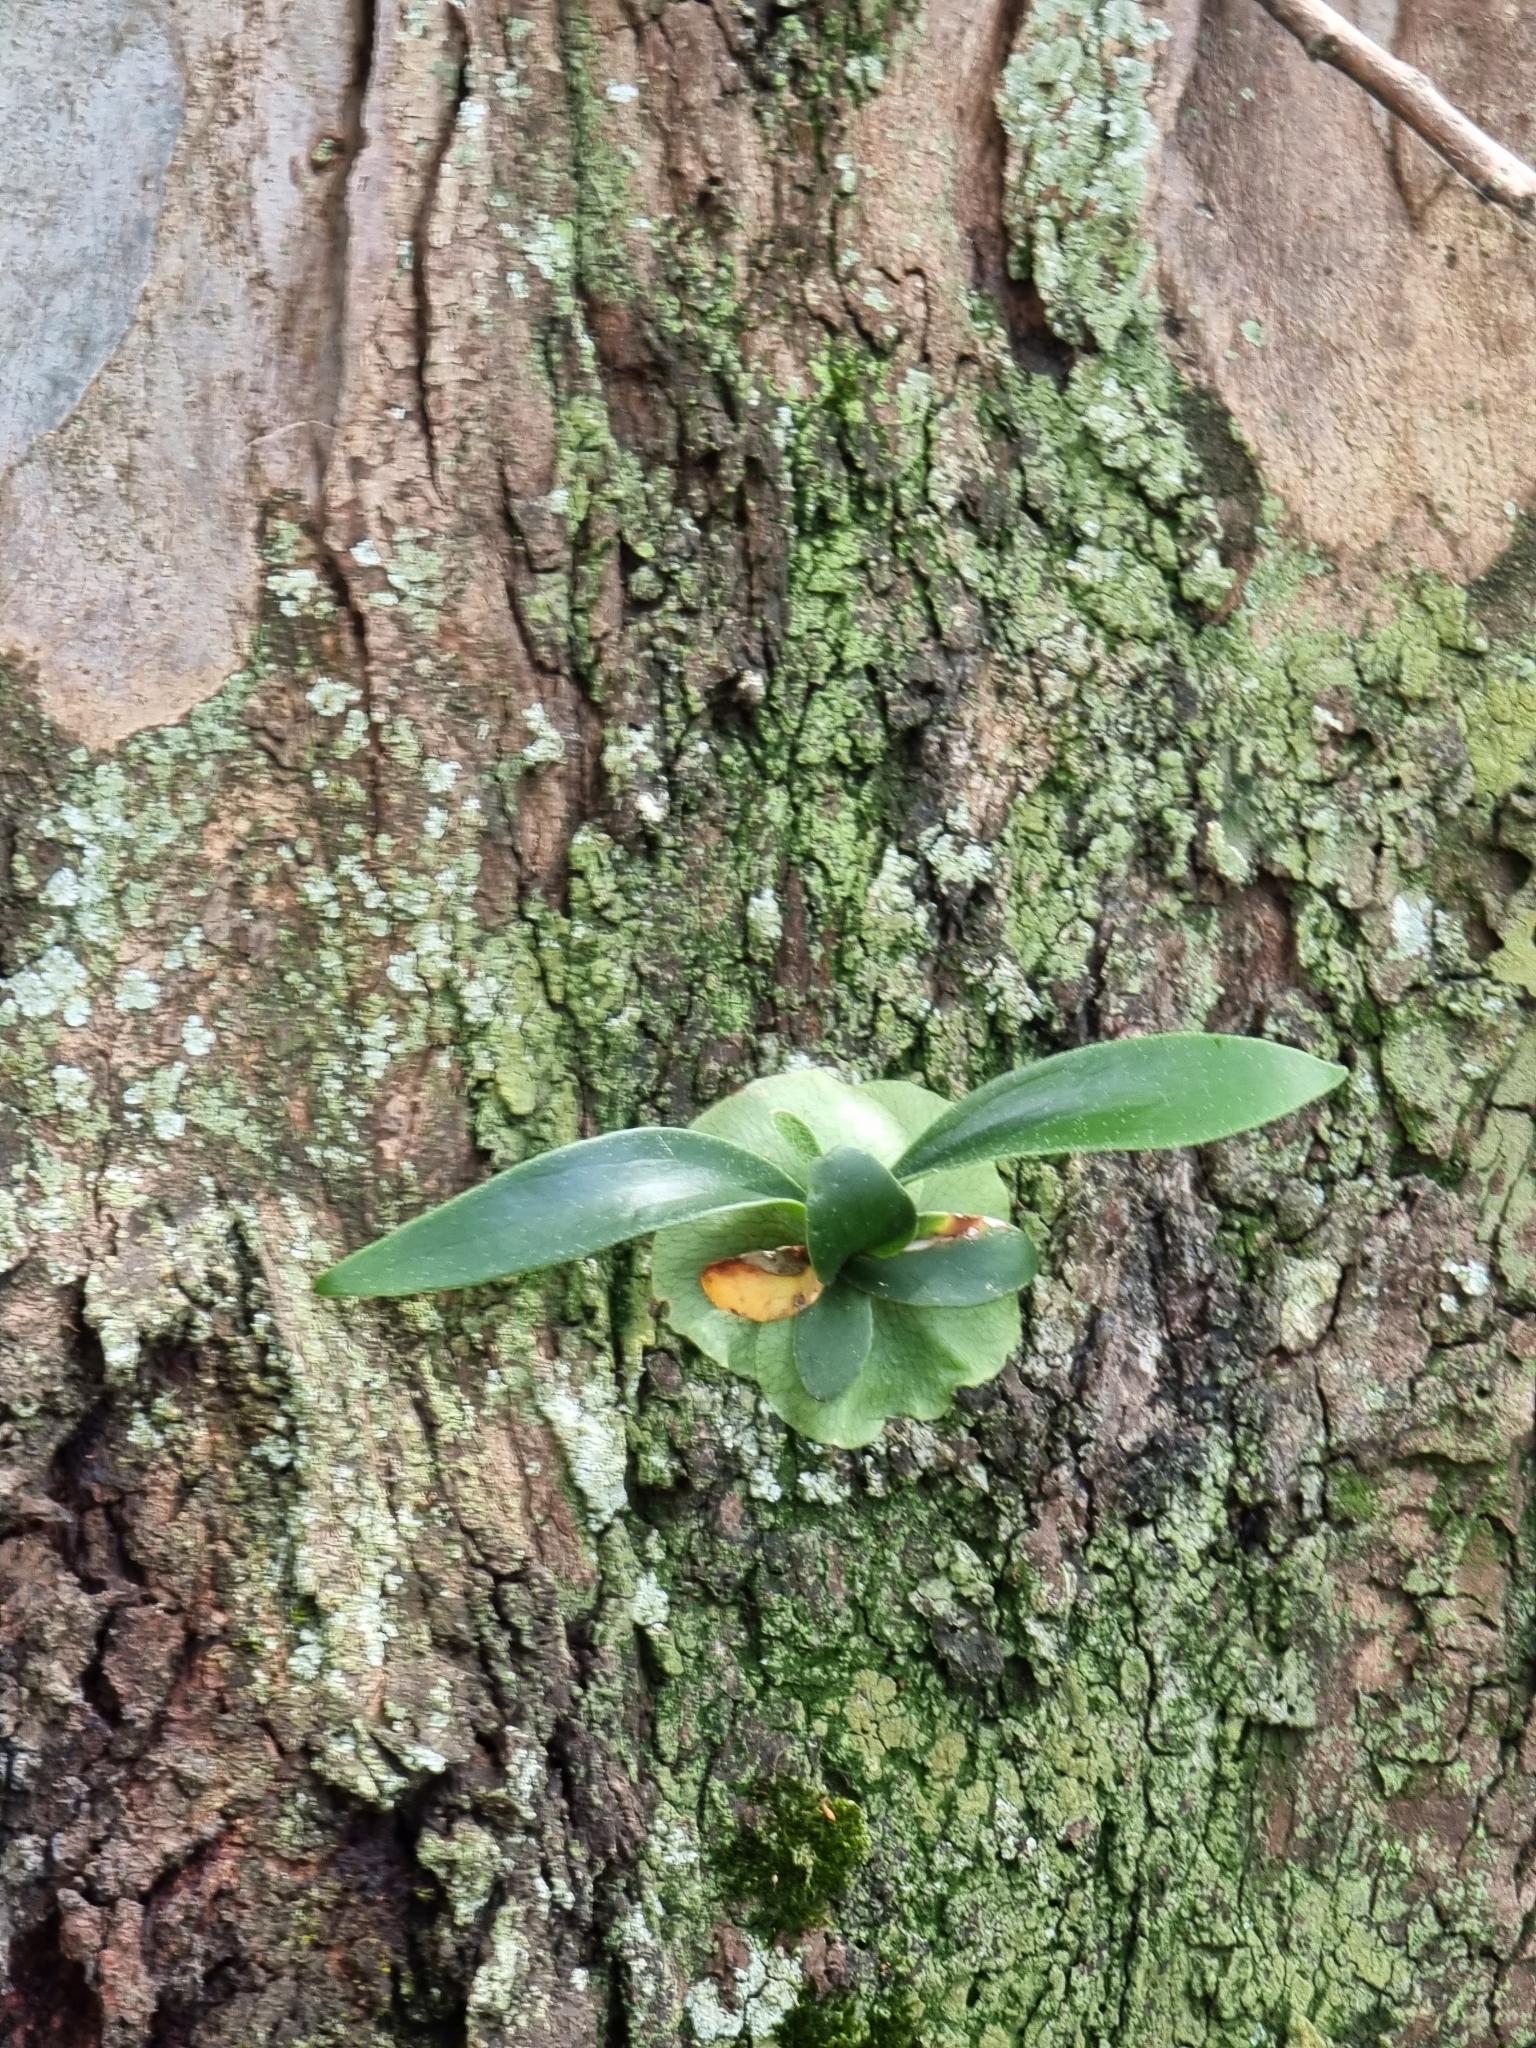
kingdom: Plantae
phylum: Tracheophyta
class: Polypodiopsida
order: Polypodiales
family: Polypodiaceae
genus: Platycerium
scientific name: Platycerium bifurcatum
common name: Elkhorn fern
